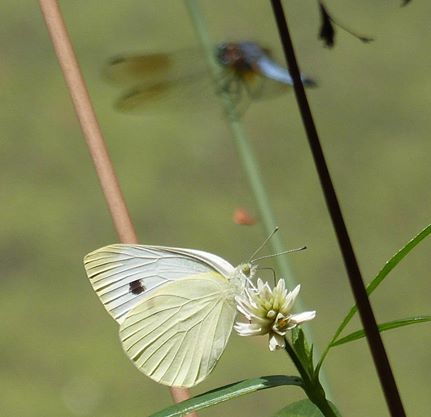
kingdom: Animalia
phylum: Arthropoda
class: Insecta
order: Lepidoptera
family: Pieridae
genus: Pieris
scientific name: Pieris rapae
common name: Small white
